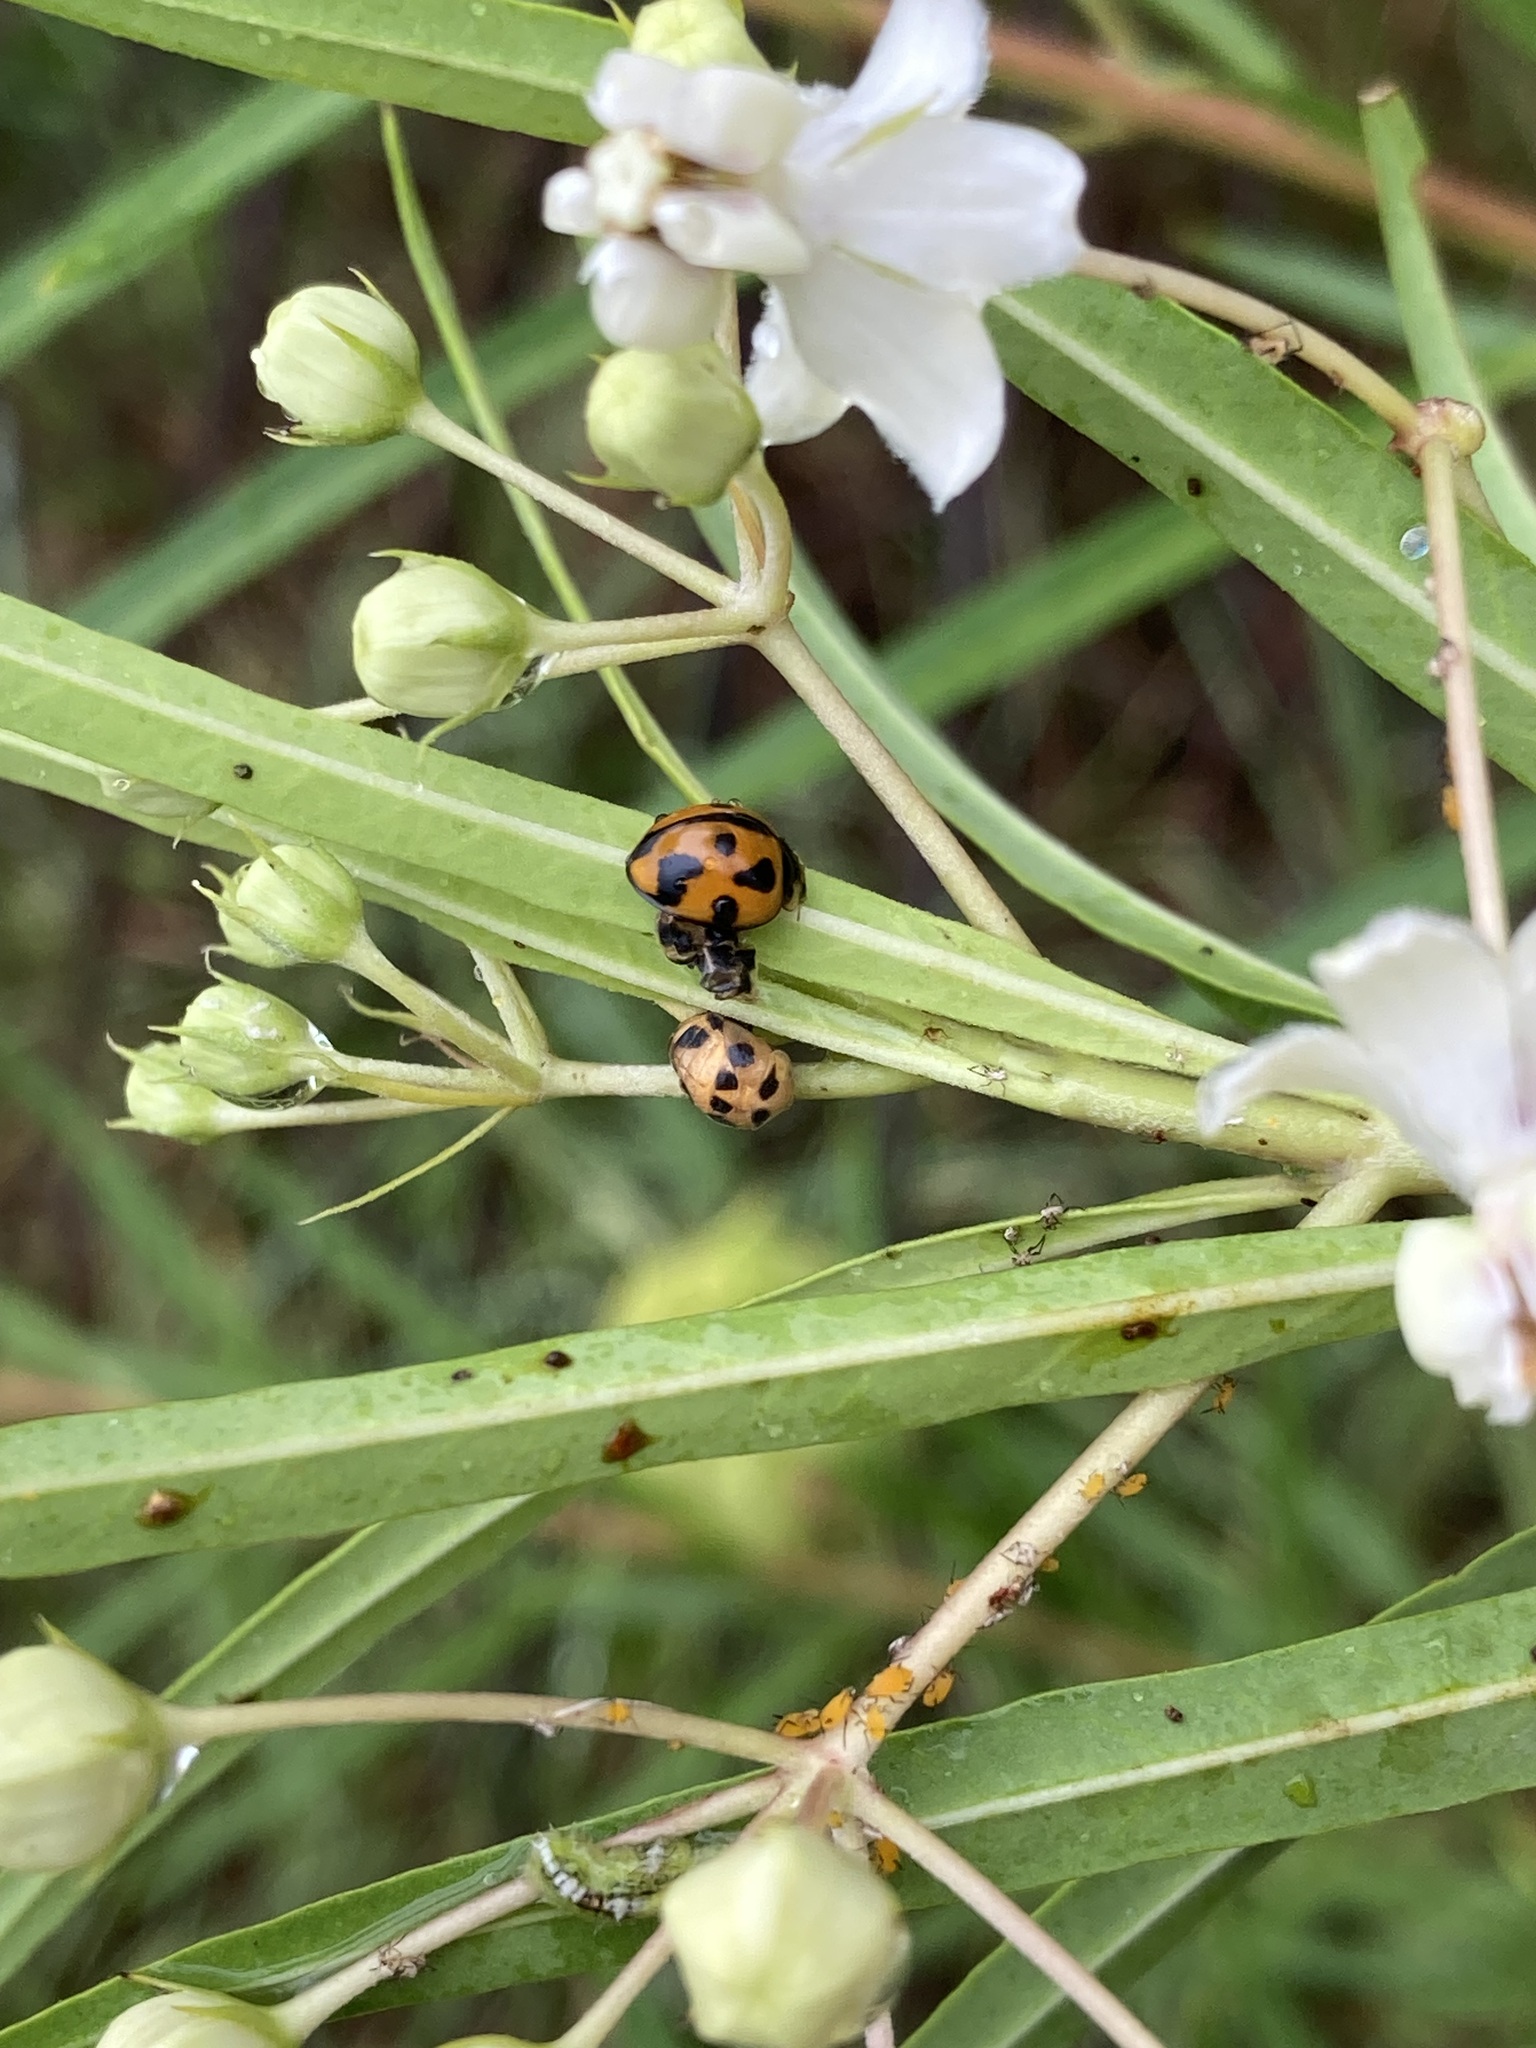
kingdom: Animalia
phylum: Arthropoda
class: Insecta
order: Coleoptera
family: Coccinellidae
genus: Coelophora
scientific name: Coelophora inaequalis
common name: Common australian lady beetle
